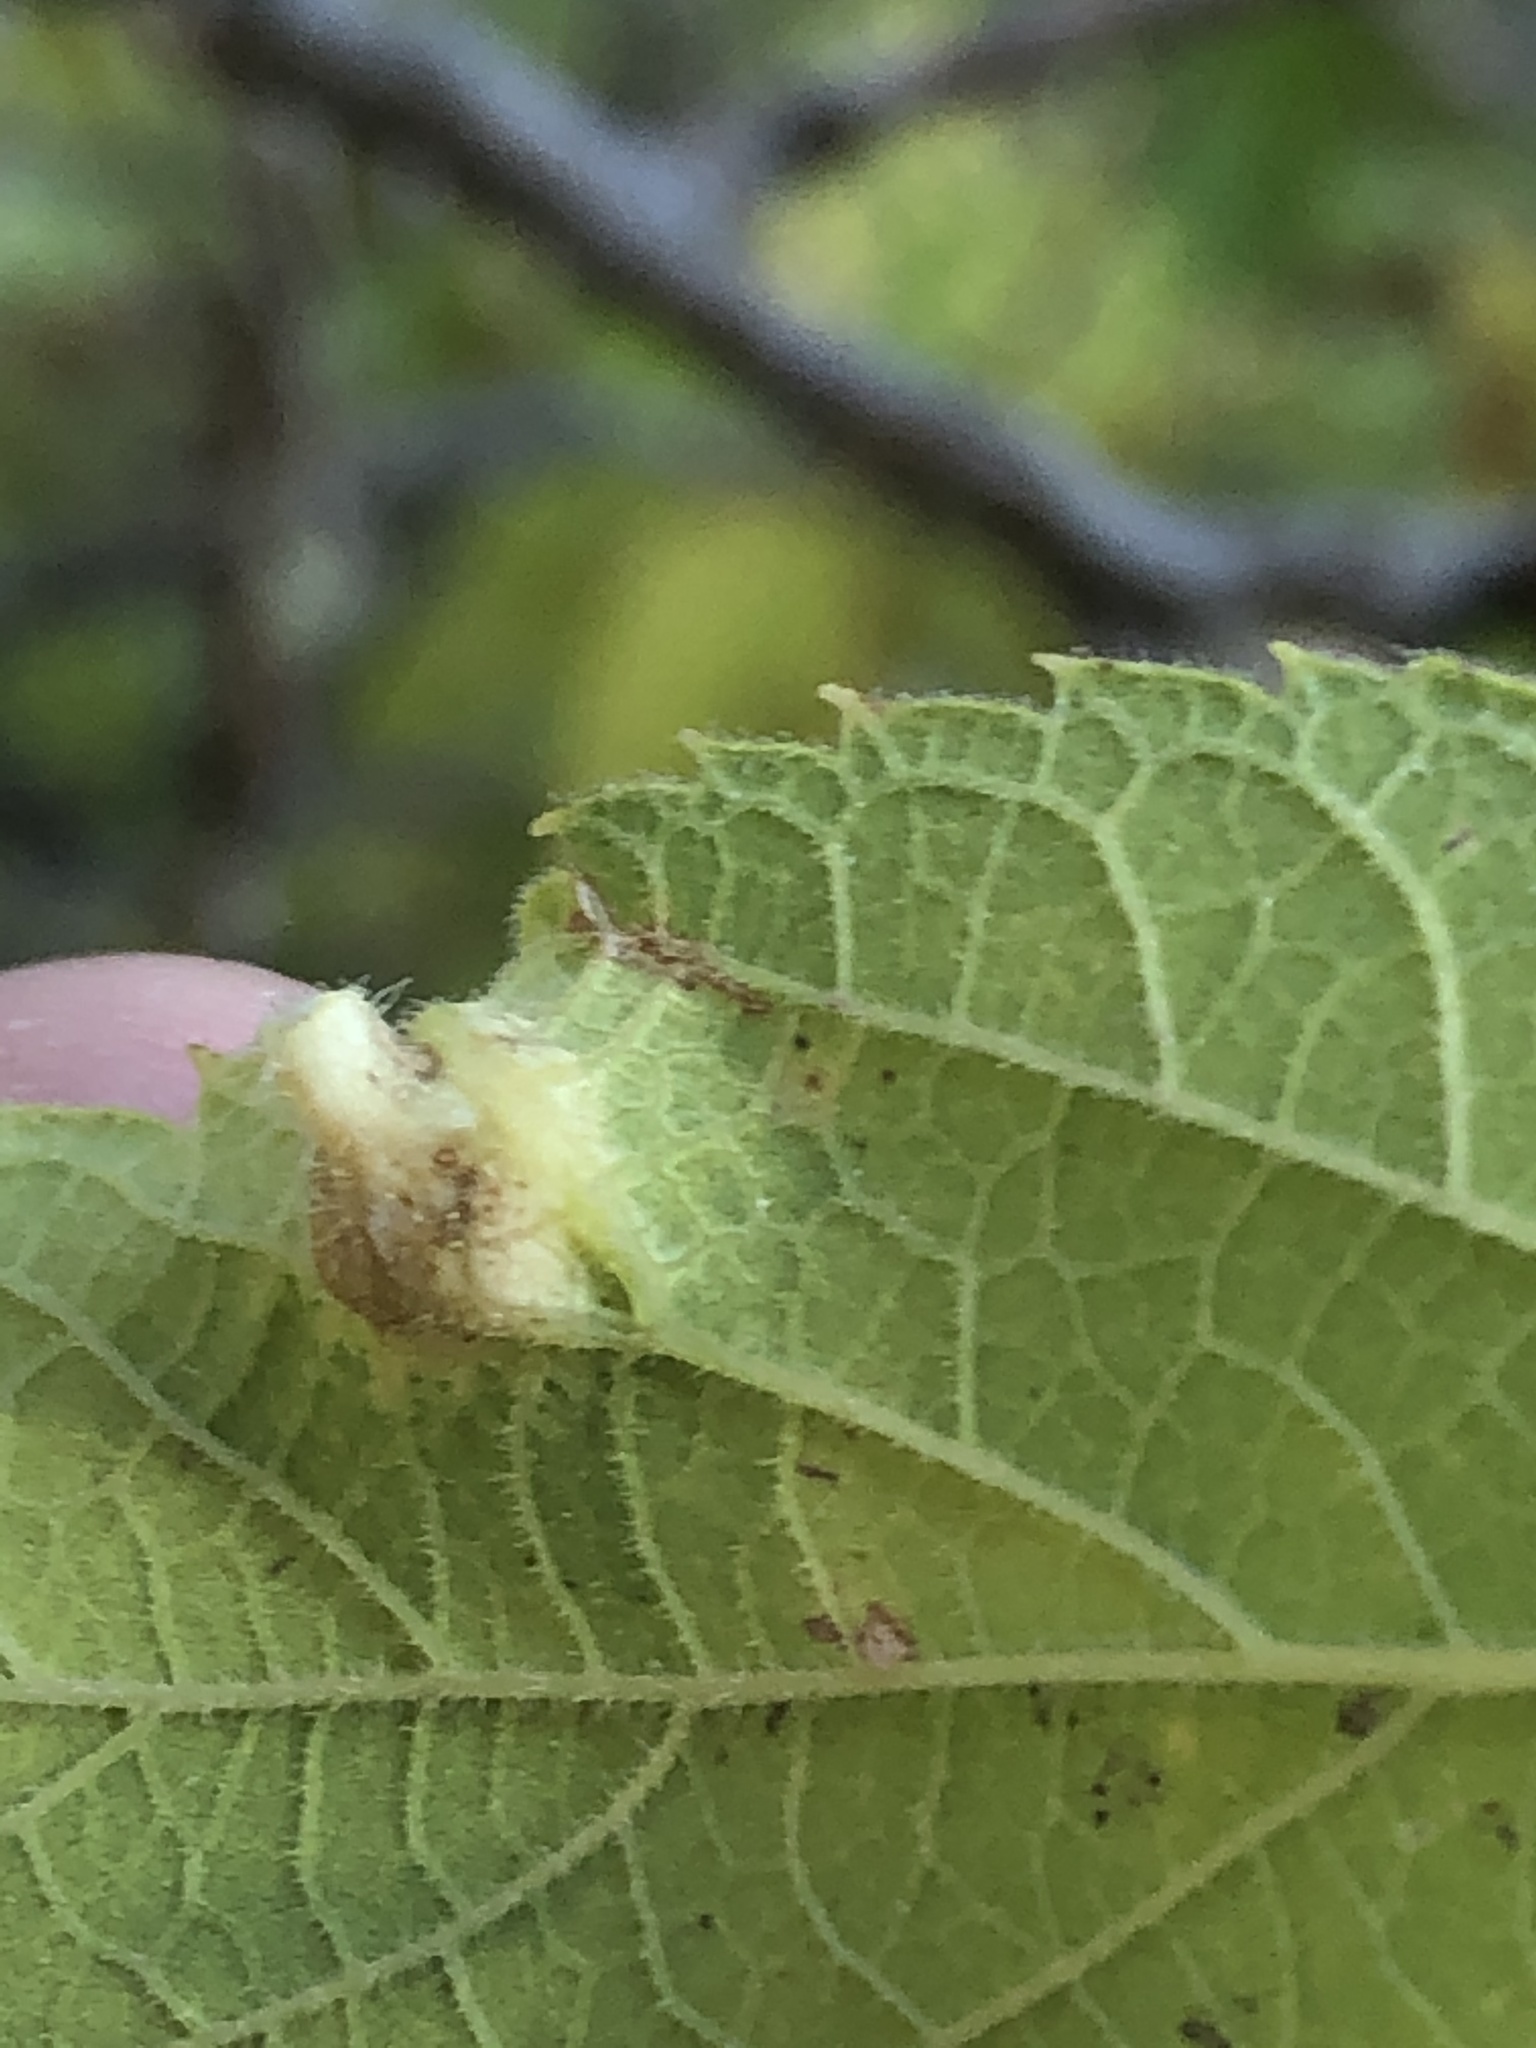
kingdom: Animalia
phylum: Arthropoda
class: Insecta
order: Hemiptera
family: Aphalaridae
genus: Pachypsylla
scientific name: Pachypsylla celtidismamma
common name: Hackberry nipplegall psyllid
